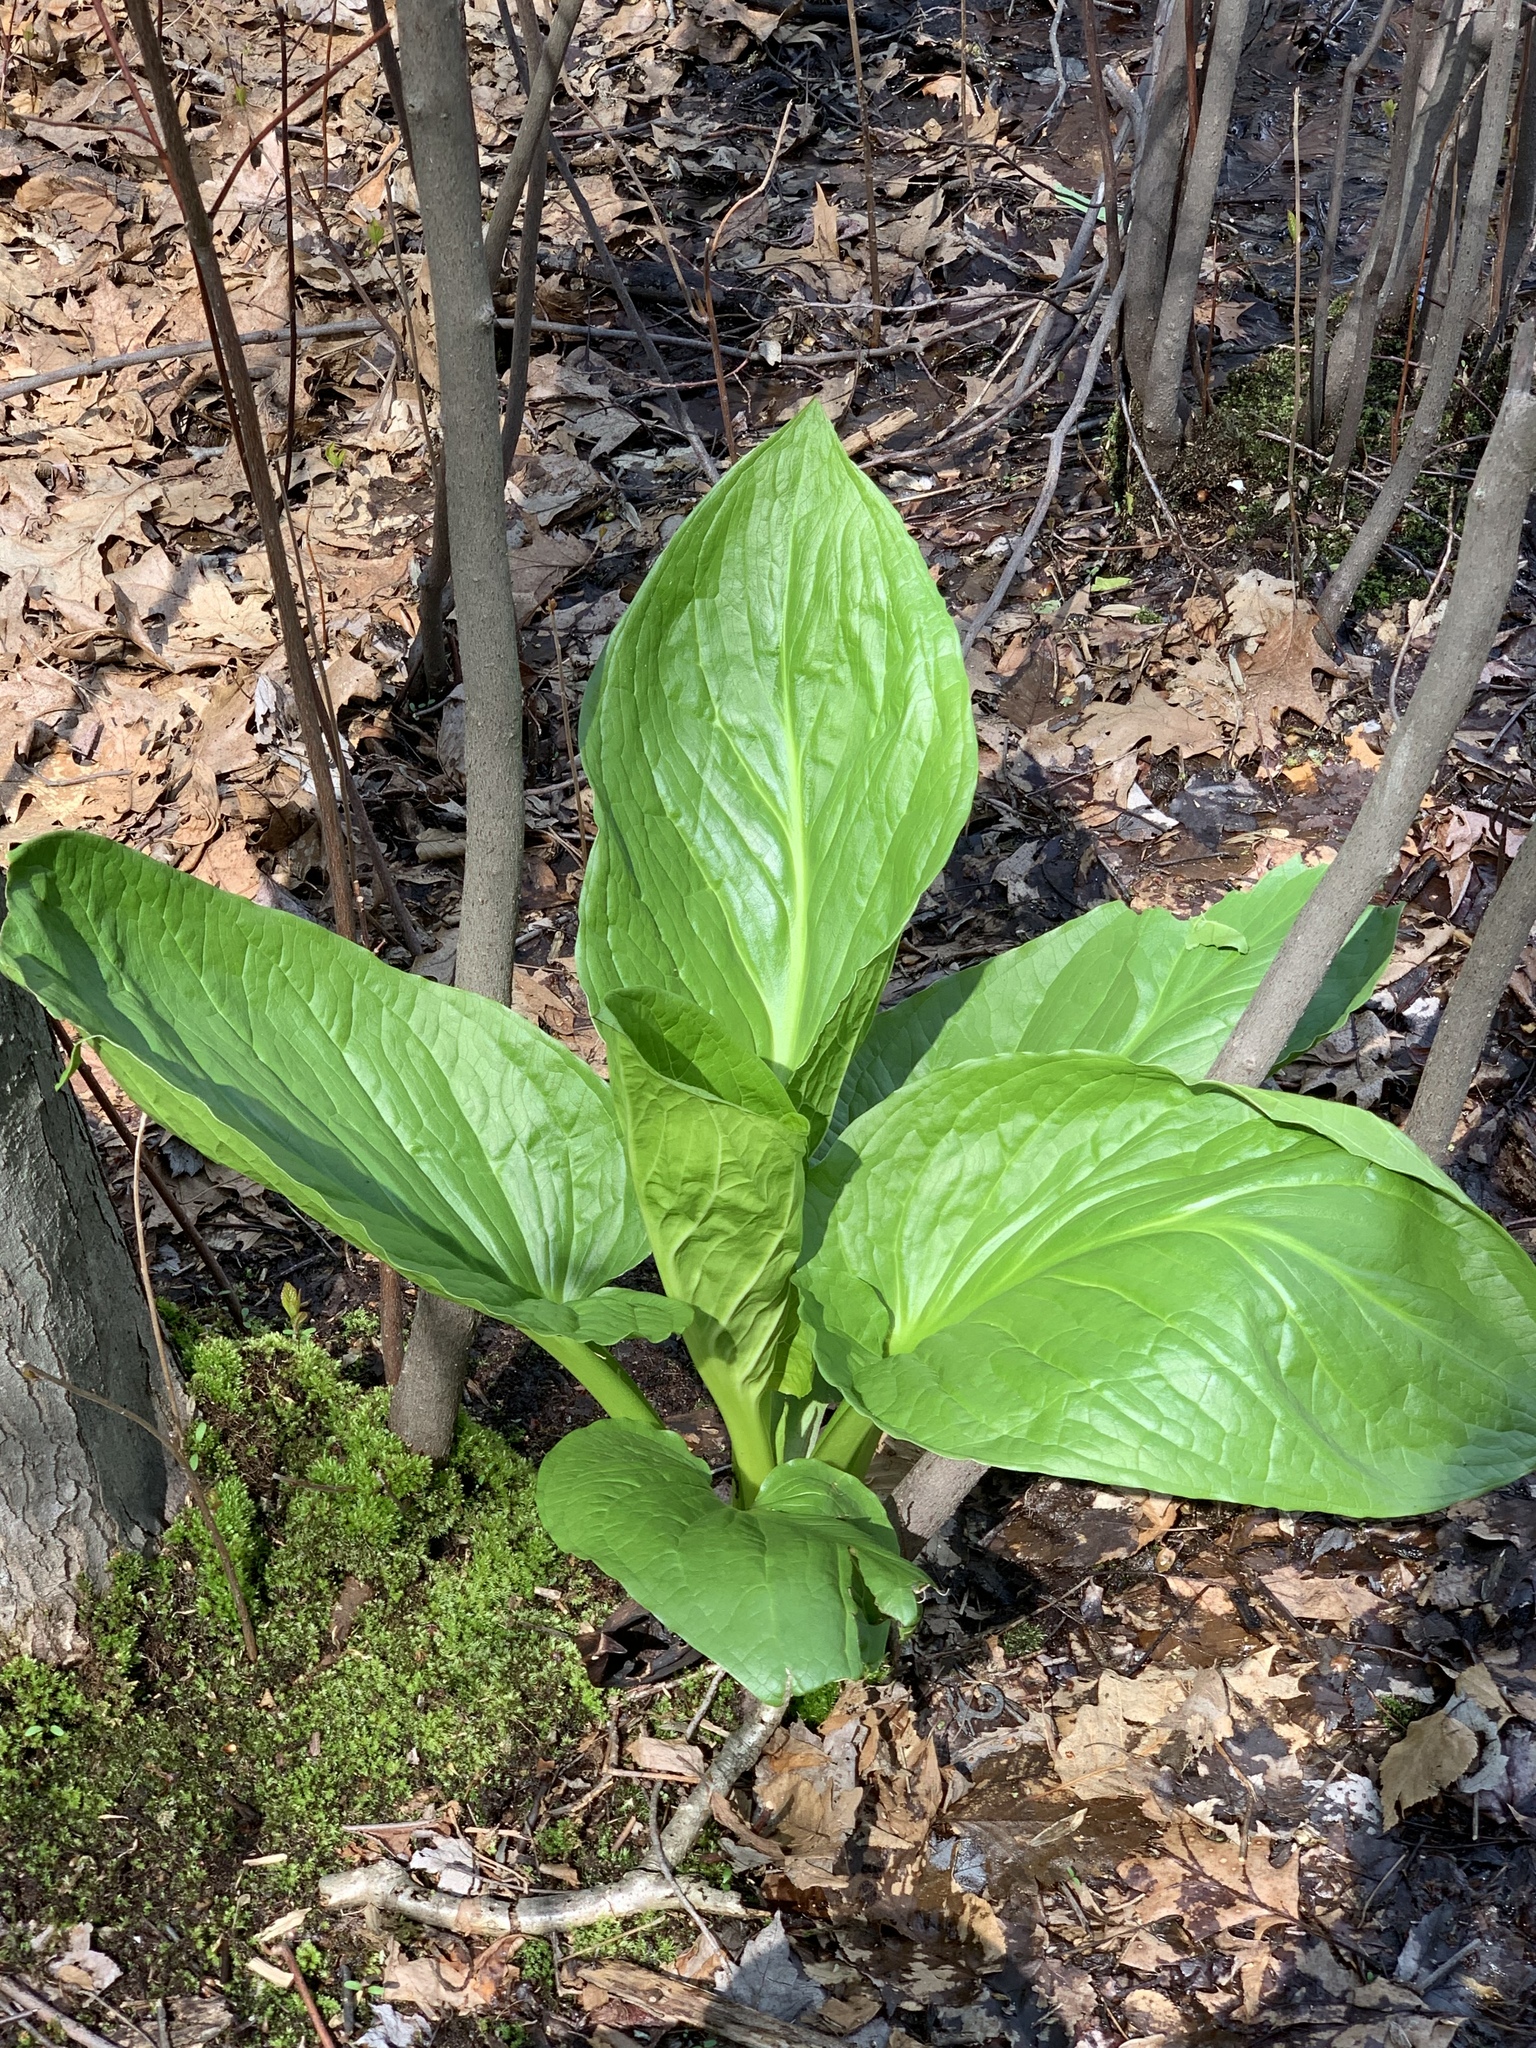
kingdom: Plantae
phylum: Tracheophyta
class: Liliopsida
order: Alismatales
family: Araceae
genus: Symplocarpus
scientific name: Symplocarpus foetidus
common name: Eastern skunk cabbage
